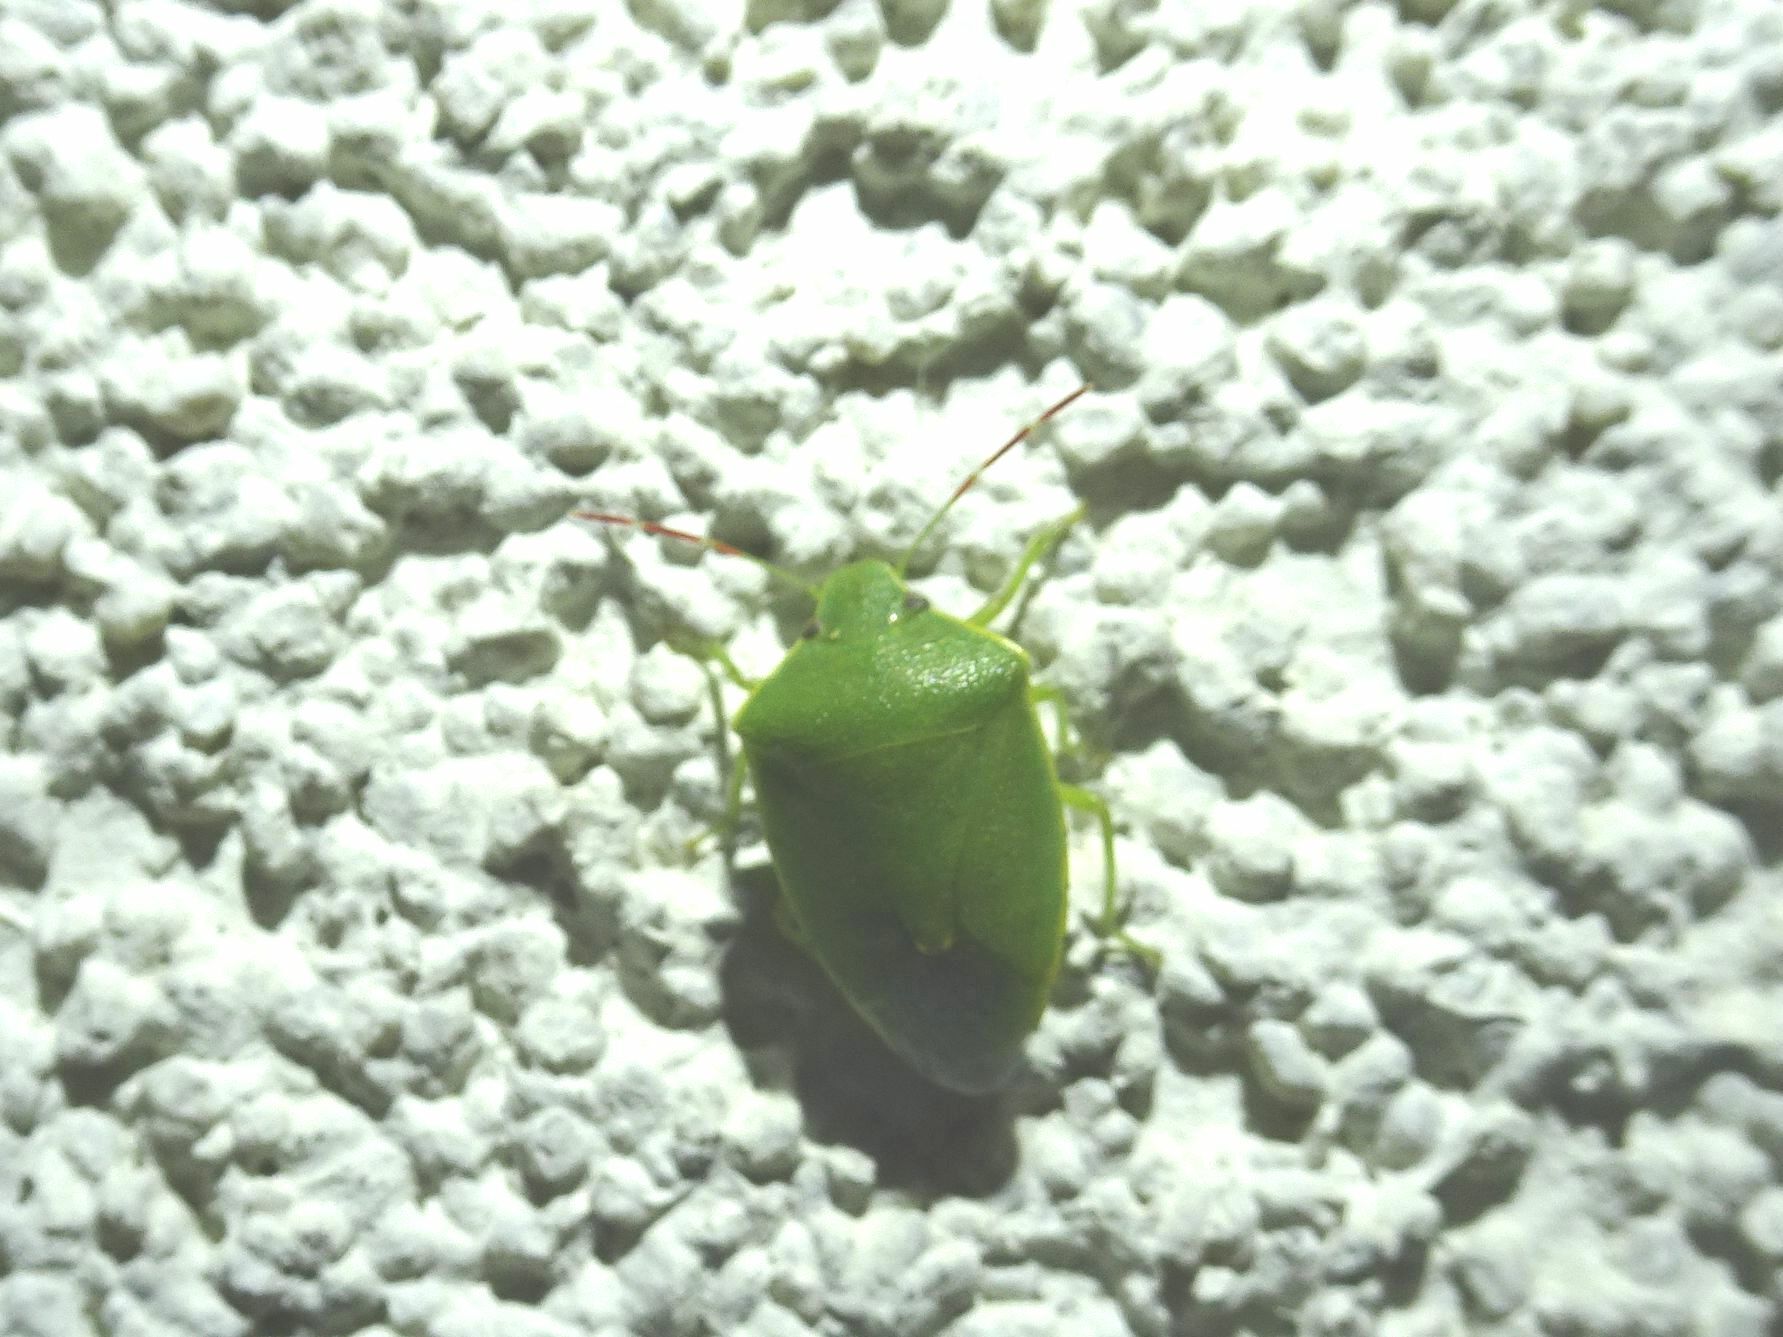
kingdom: Animalia
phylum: Arthropoda
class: Insecta
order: Hemiptera
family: Pentatomidae
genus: Acrosternum
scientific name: Acrosternum heegeri
